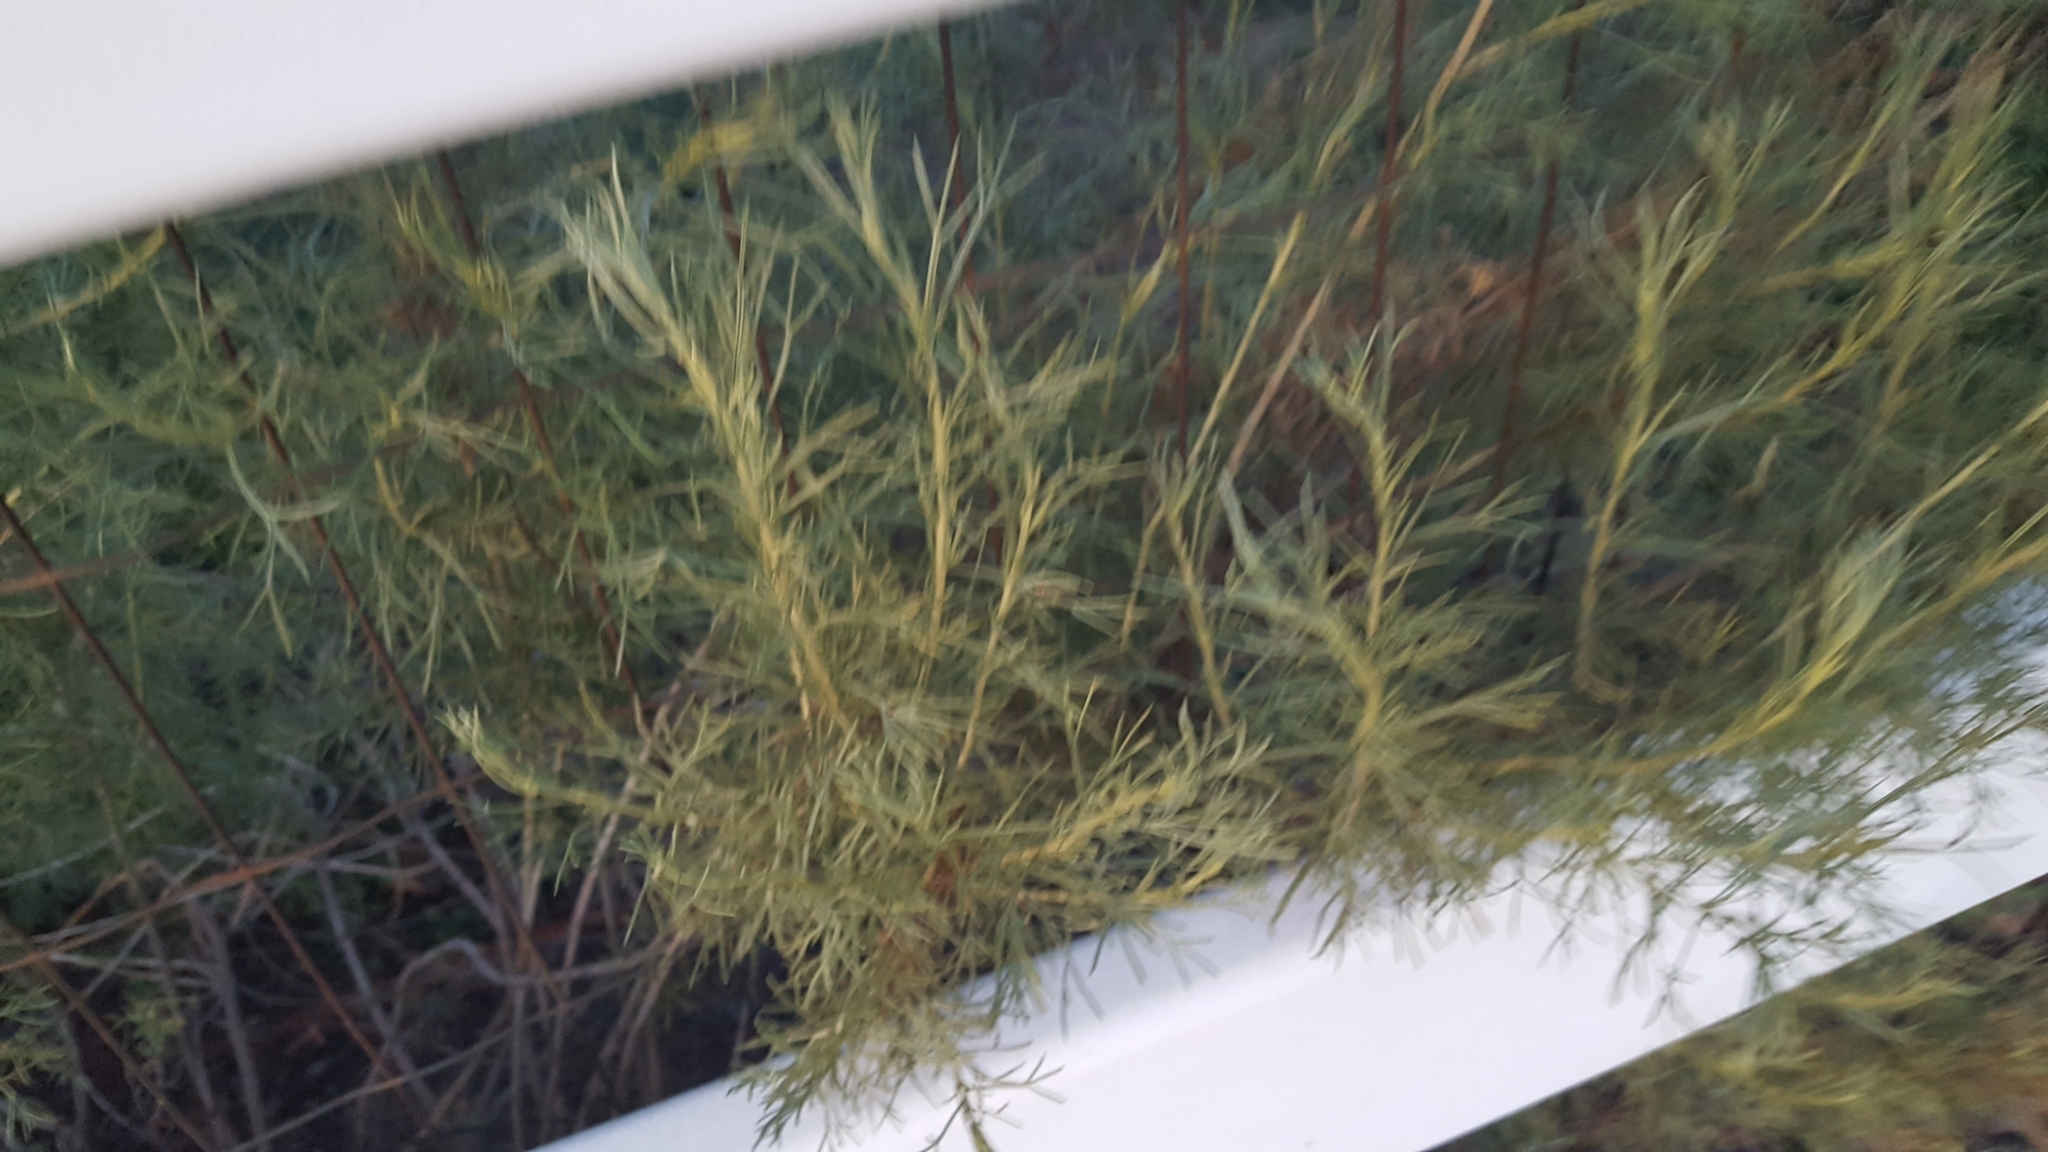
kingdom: Plantae
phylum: Tracheophyta
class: Magnoliopsida
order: Asterales
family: Asteraceae
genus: Artemisia
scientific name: Artemisia californica
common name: California sagebrush
